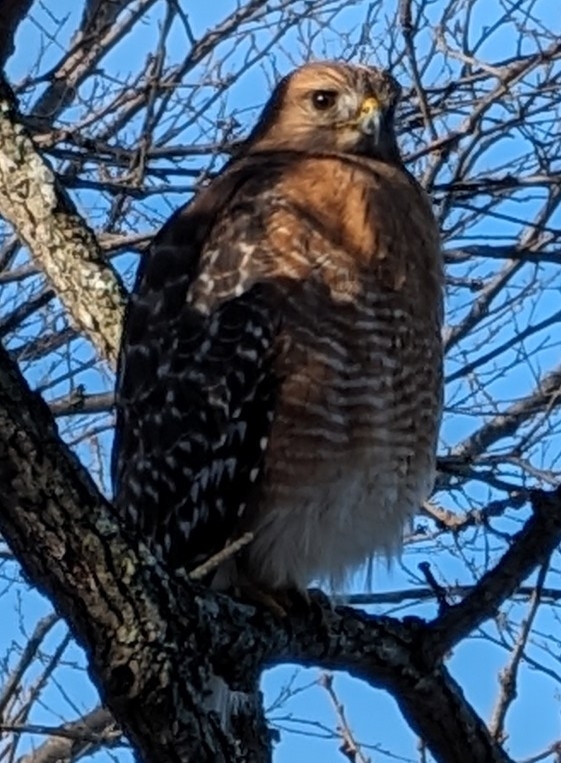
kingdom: Animalia
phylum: Chordata
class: Aves
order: Accipitriformes
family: Accipitridae
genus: Buteo
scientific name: Buteo lineatus
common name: Red-shouldered hawk
